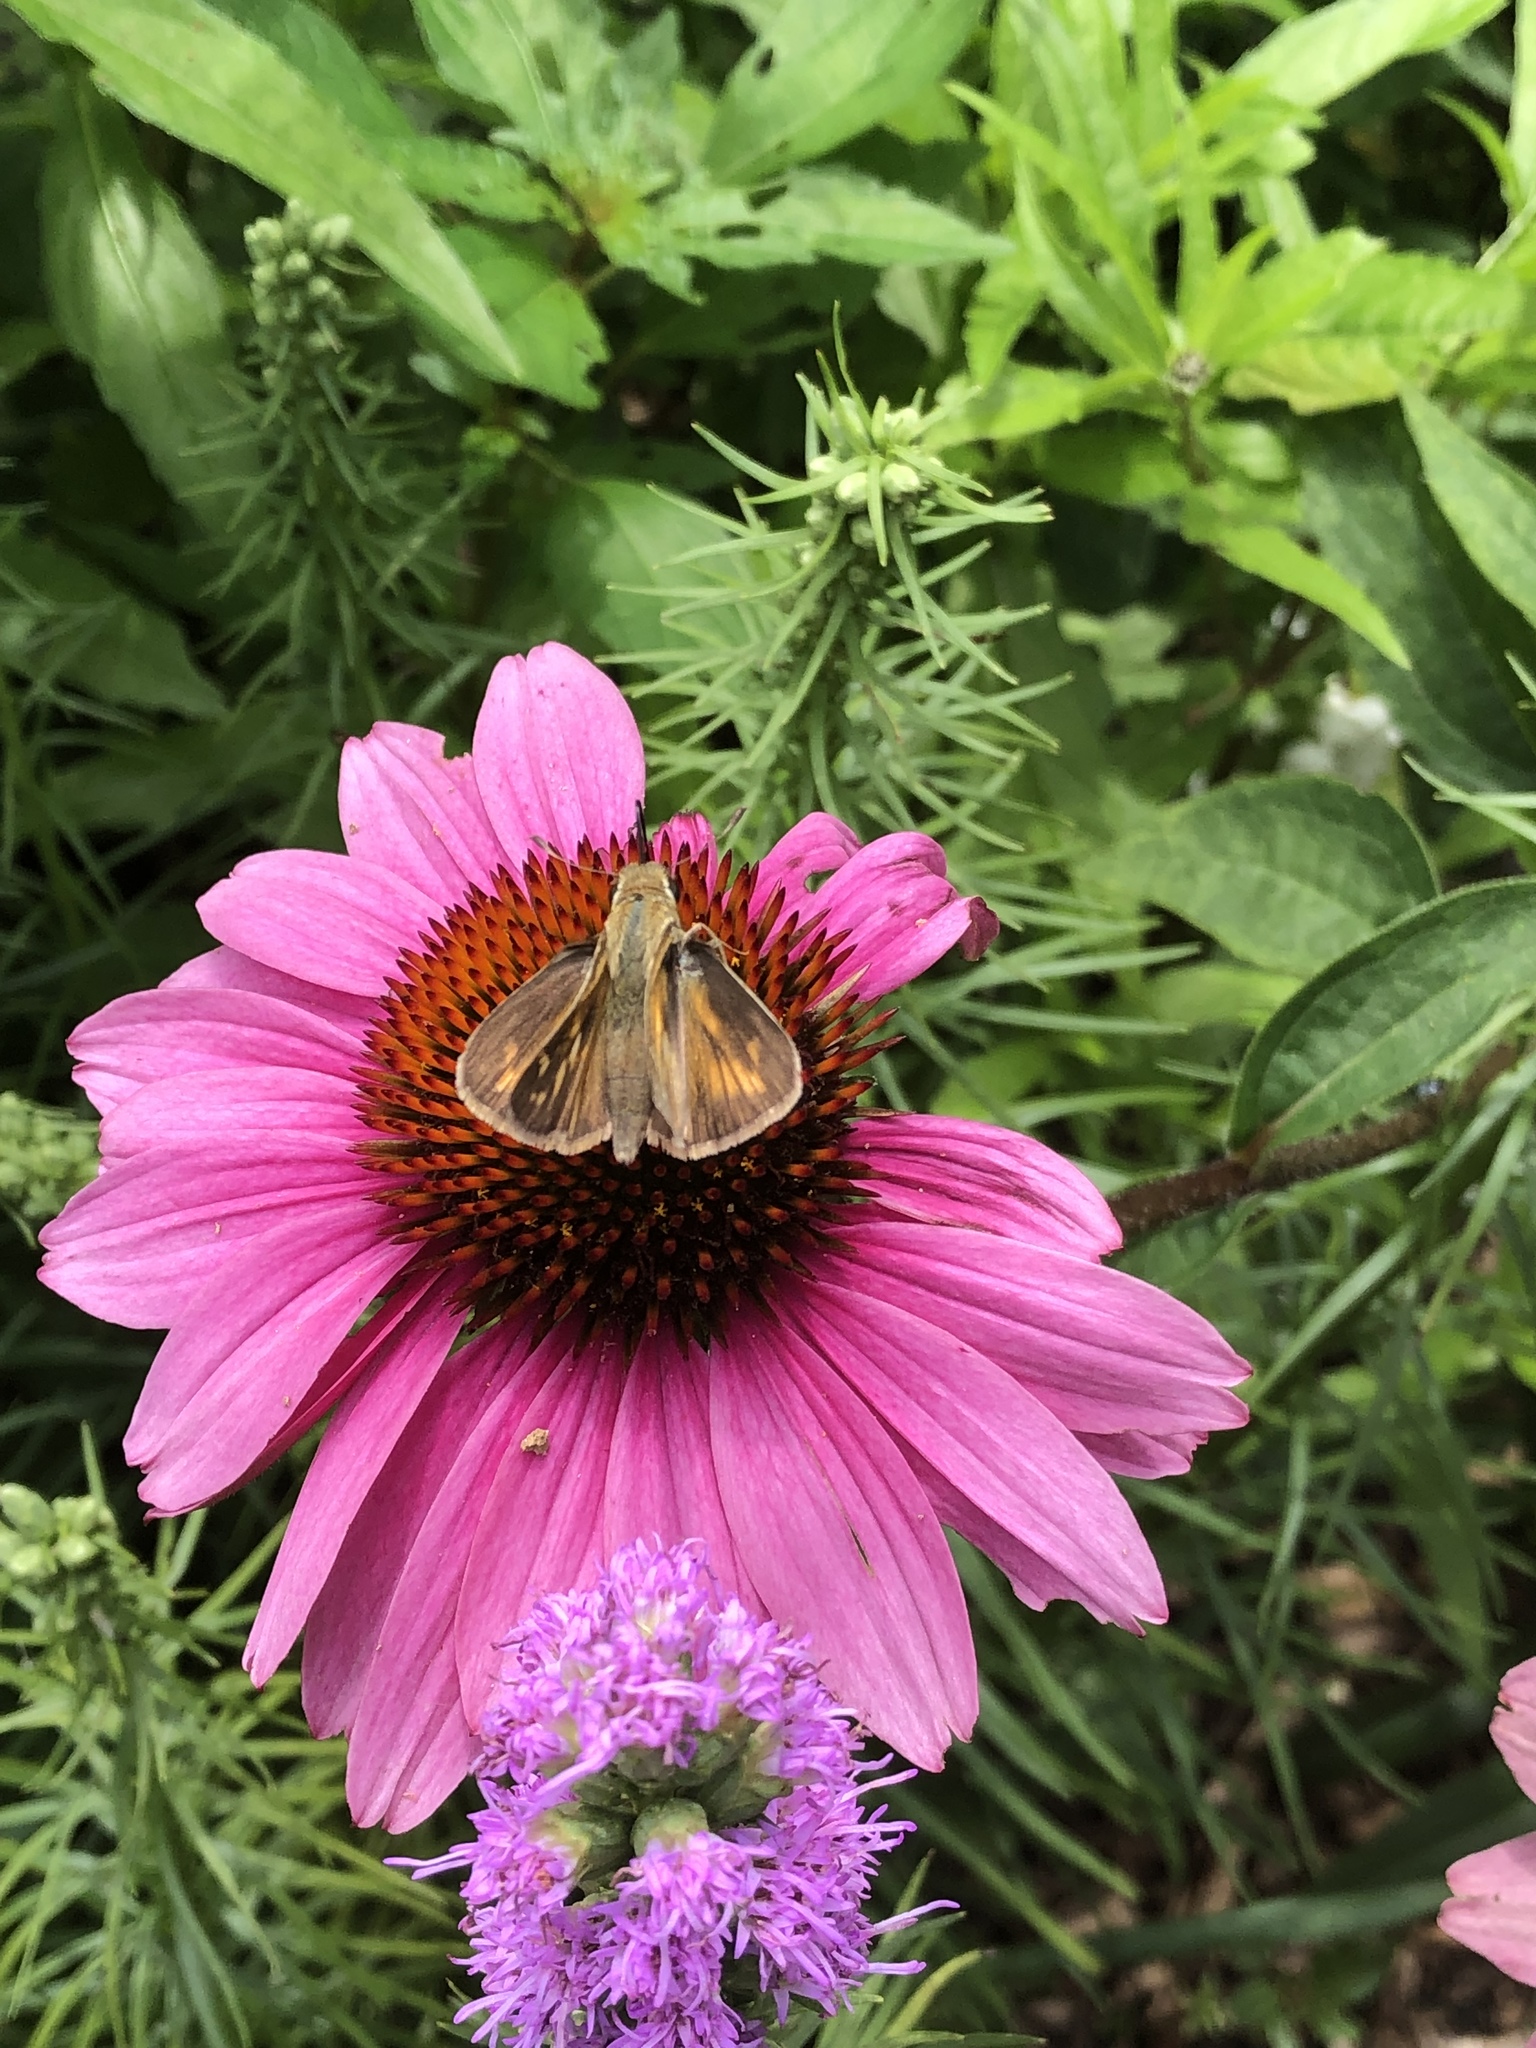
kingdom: Animalia
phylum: Arthropoda
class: Insecta
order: Lepidoptera
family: Hesperiidae
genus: Atalopedes
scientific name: Atalopedes
